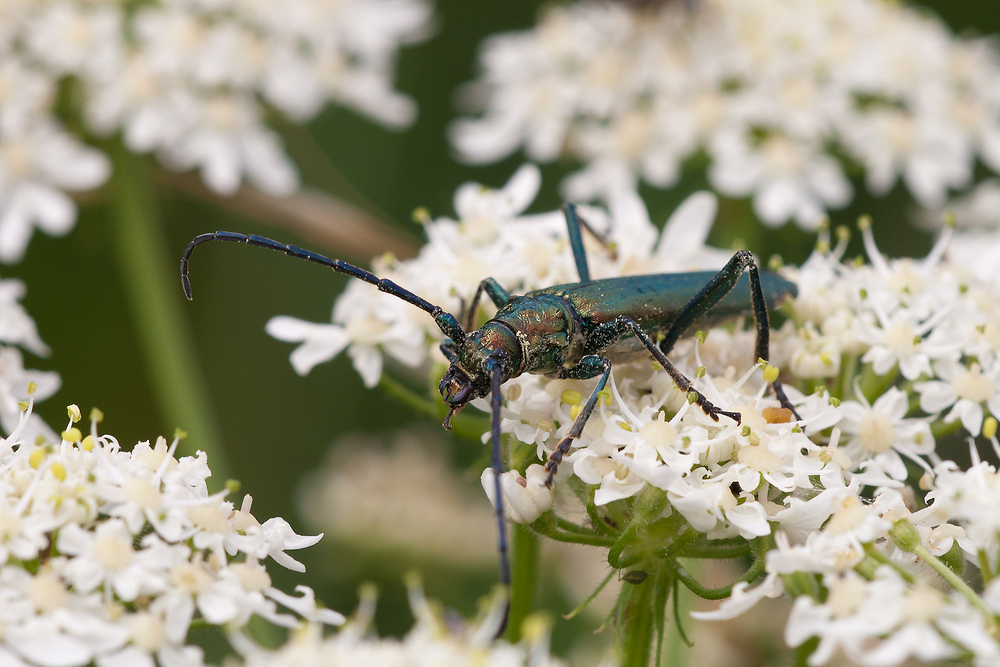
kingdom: Animalia
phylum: Arthropoda
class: Insecta
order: Coleoptera
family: Cerambycidae
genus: Aromia
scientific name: Aromia moschata
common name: Musk beetle
